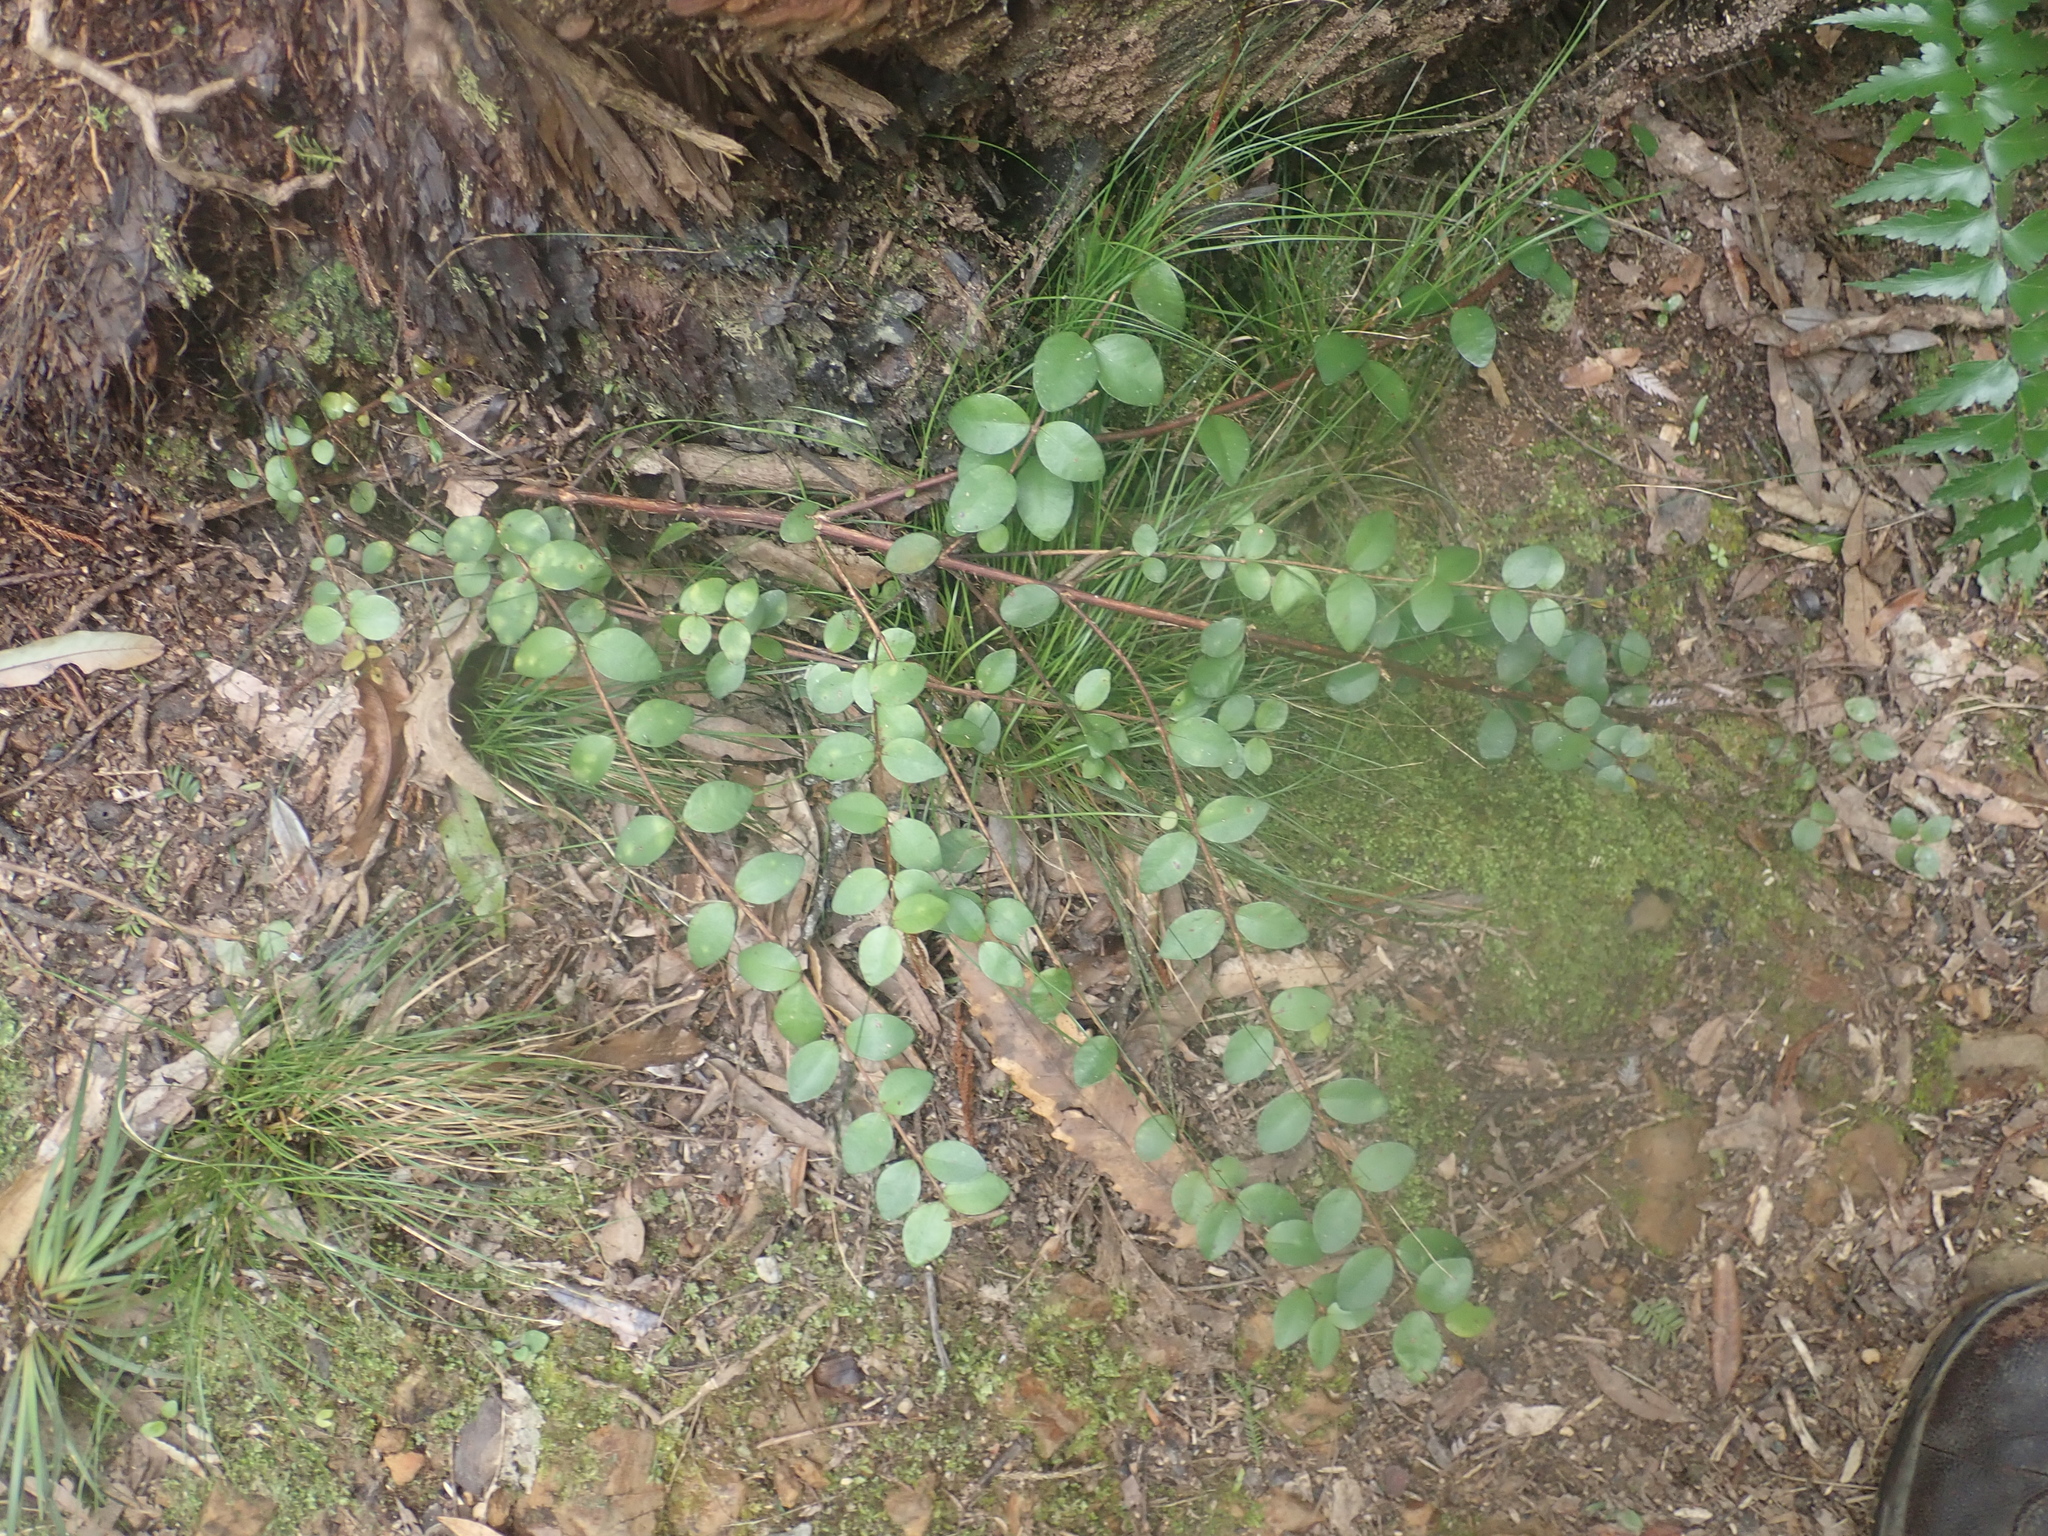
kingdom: Plantae
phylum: Tracheophyta
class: Magnoliopsida
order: Myrtales
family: Myrtaceae
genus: Metrosideros
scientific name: Metrosideros fulgens
